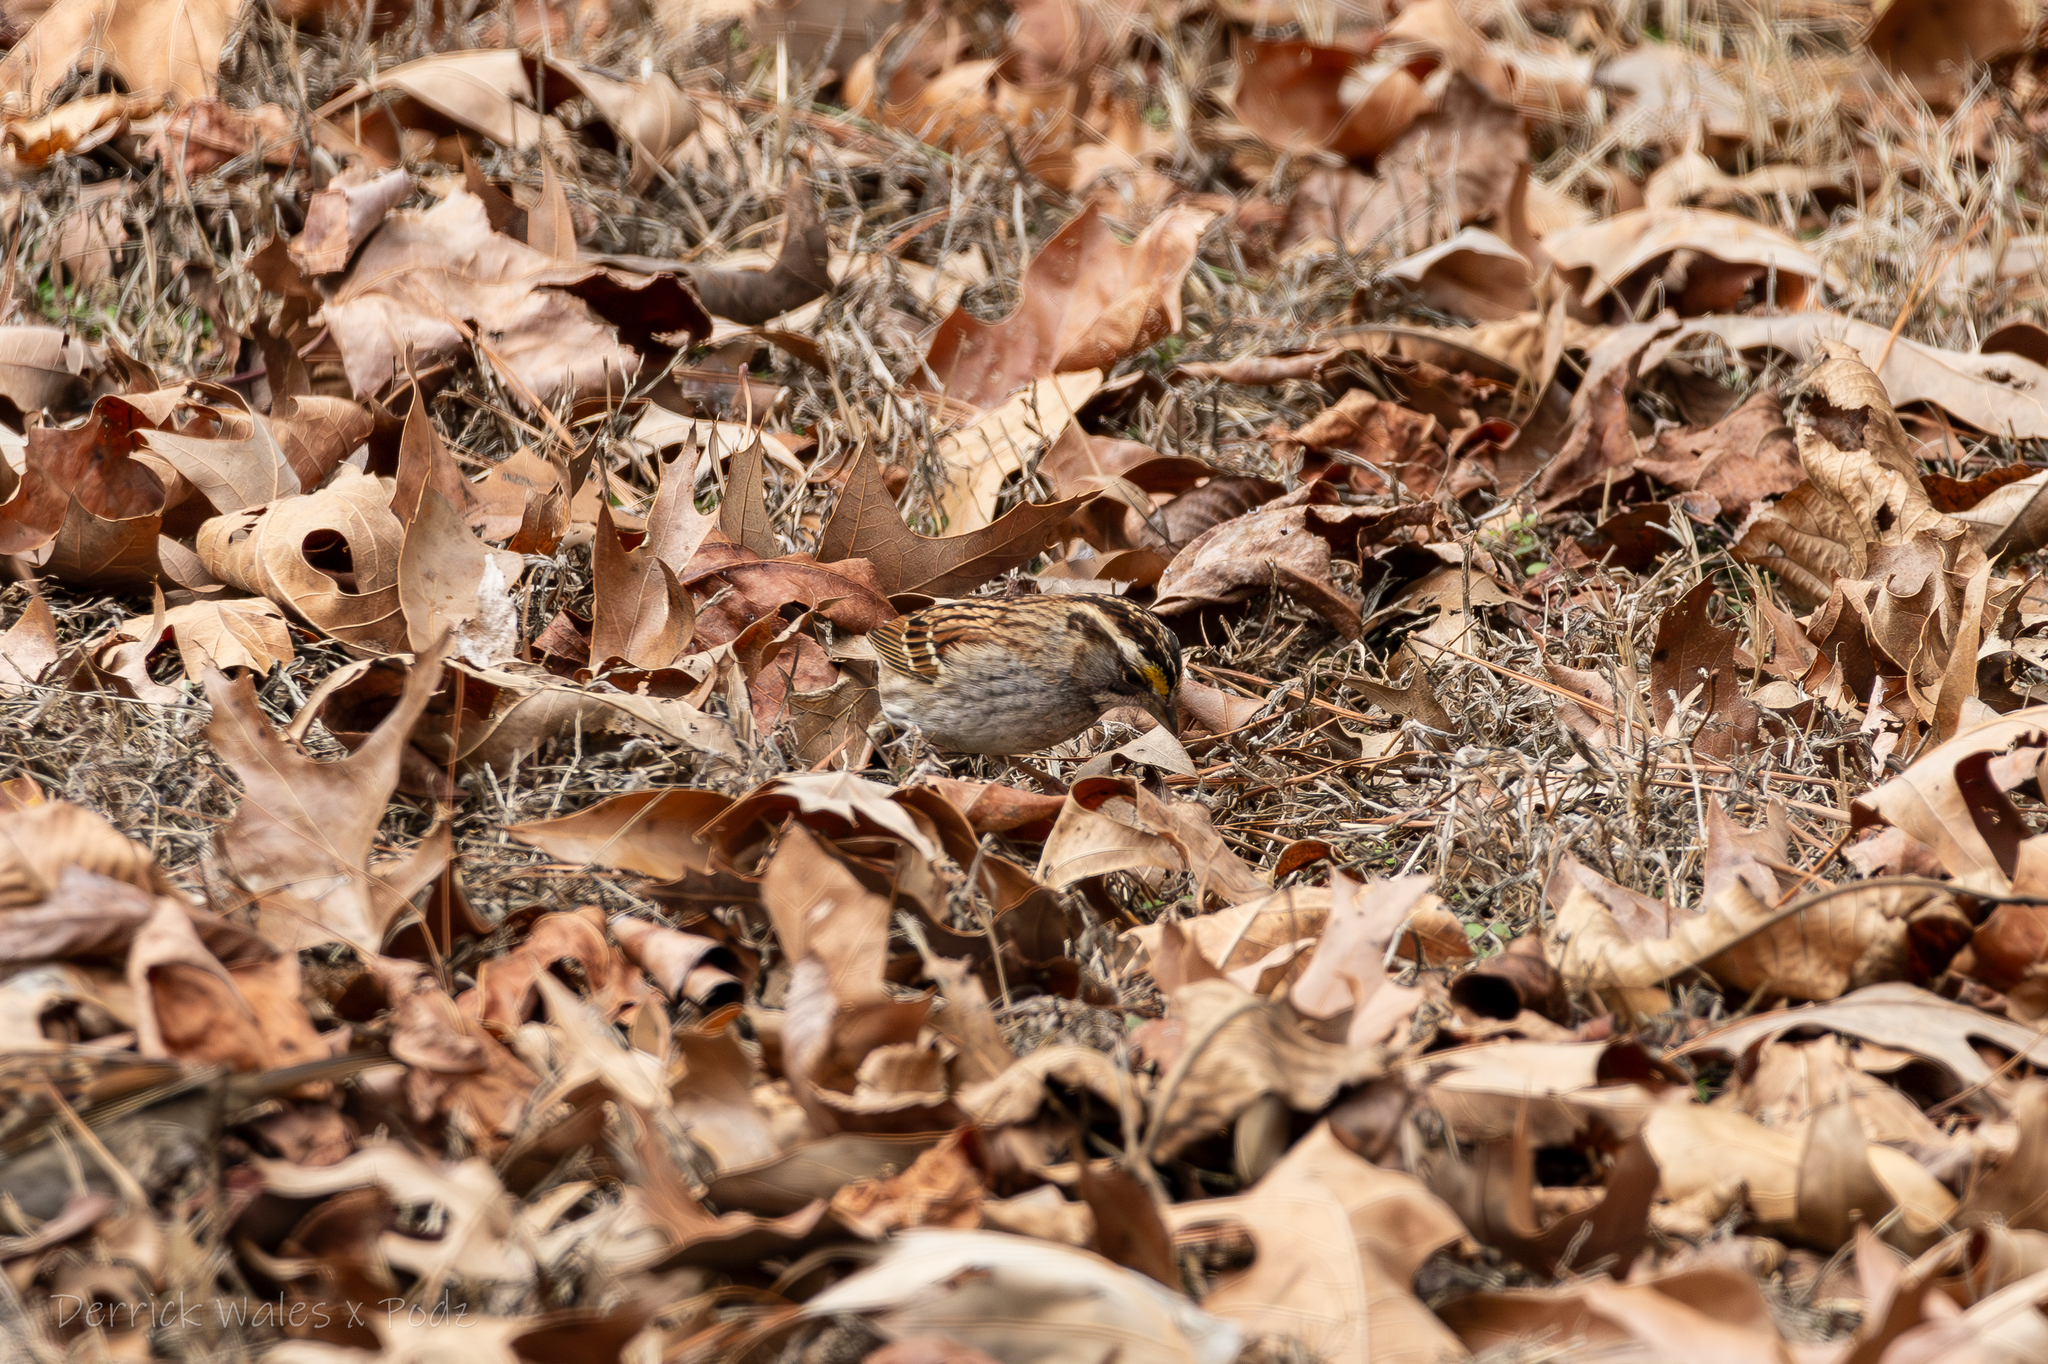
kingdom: Animalia
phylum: Chordata
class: Aves
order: Passeriformes
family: Passerellidae
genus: Zonotrichia
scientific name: Zonotrichia albicollis
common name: White-throated sparrow
